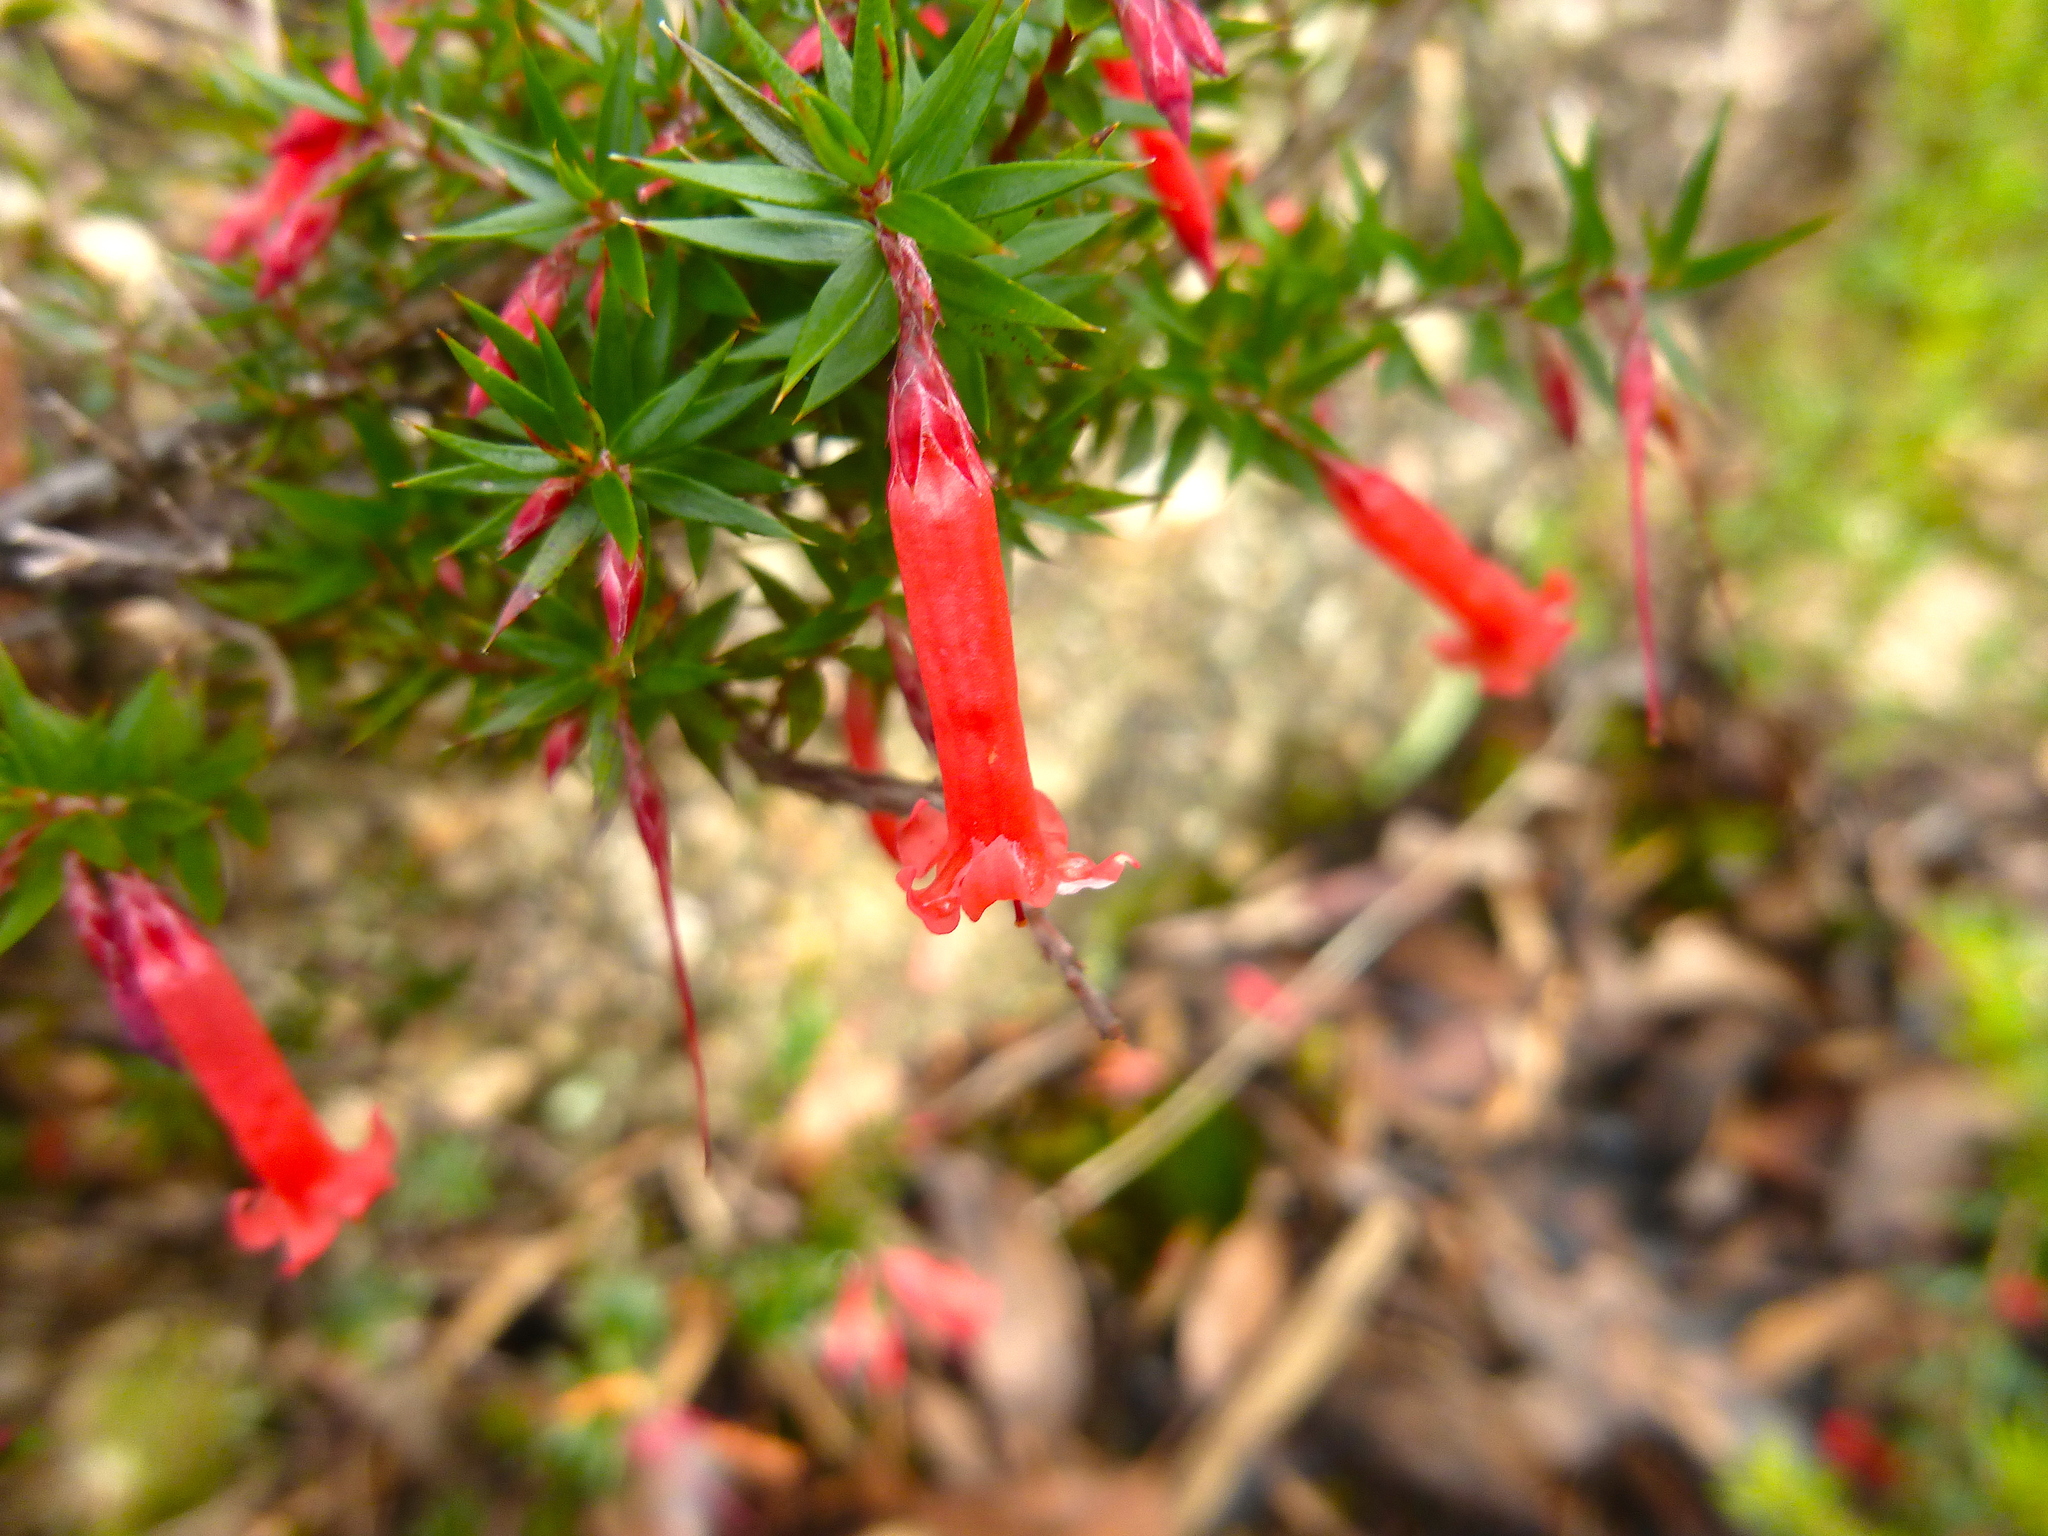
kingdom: Plantae
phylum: Tracheophyta
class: Magnoliopsida
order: Ericales
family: Ericaceae
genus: Epacris
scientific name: Epacris impressa
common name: Common-heath
